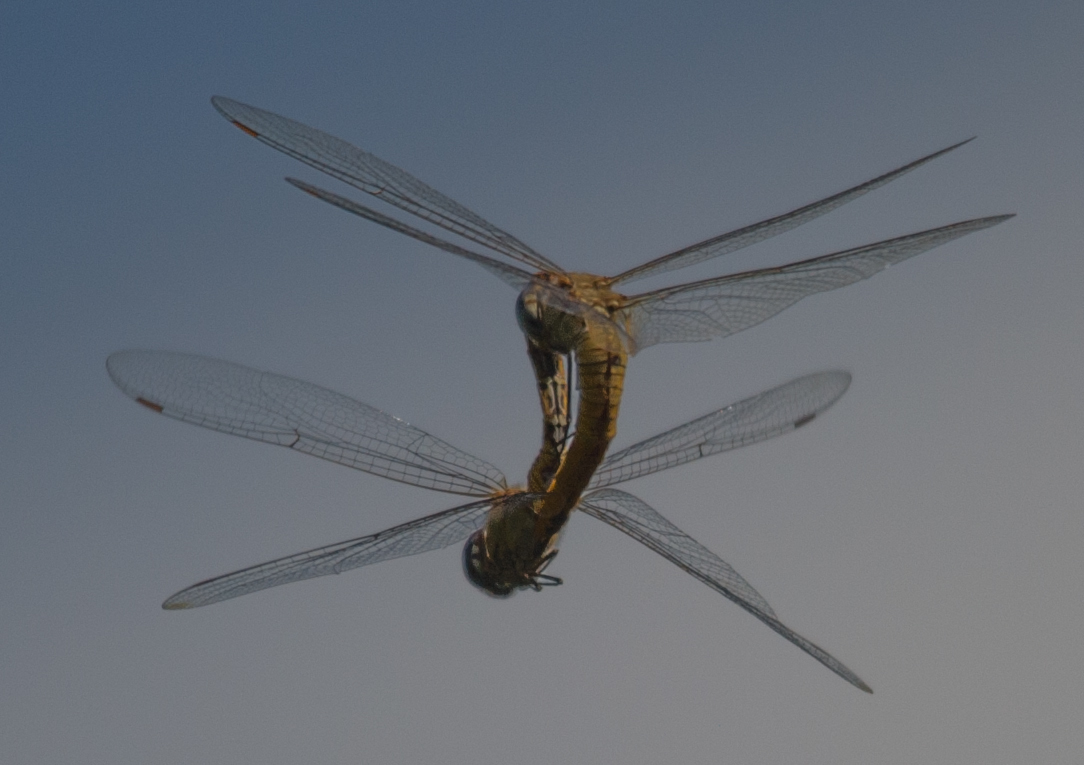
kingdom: Animalia
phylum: Arthropoda
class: Insecta
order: Odonata
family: Libellulidae
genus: Pantala
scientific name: Pantala flavescens
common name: Wandering glider
